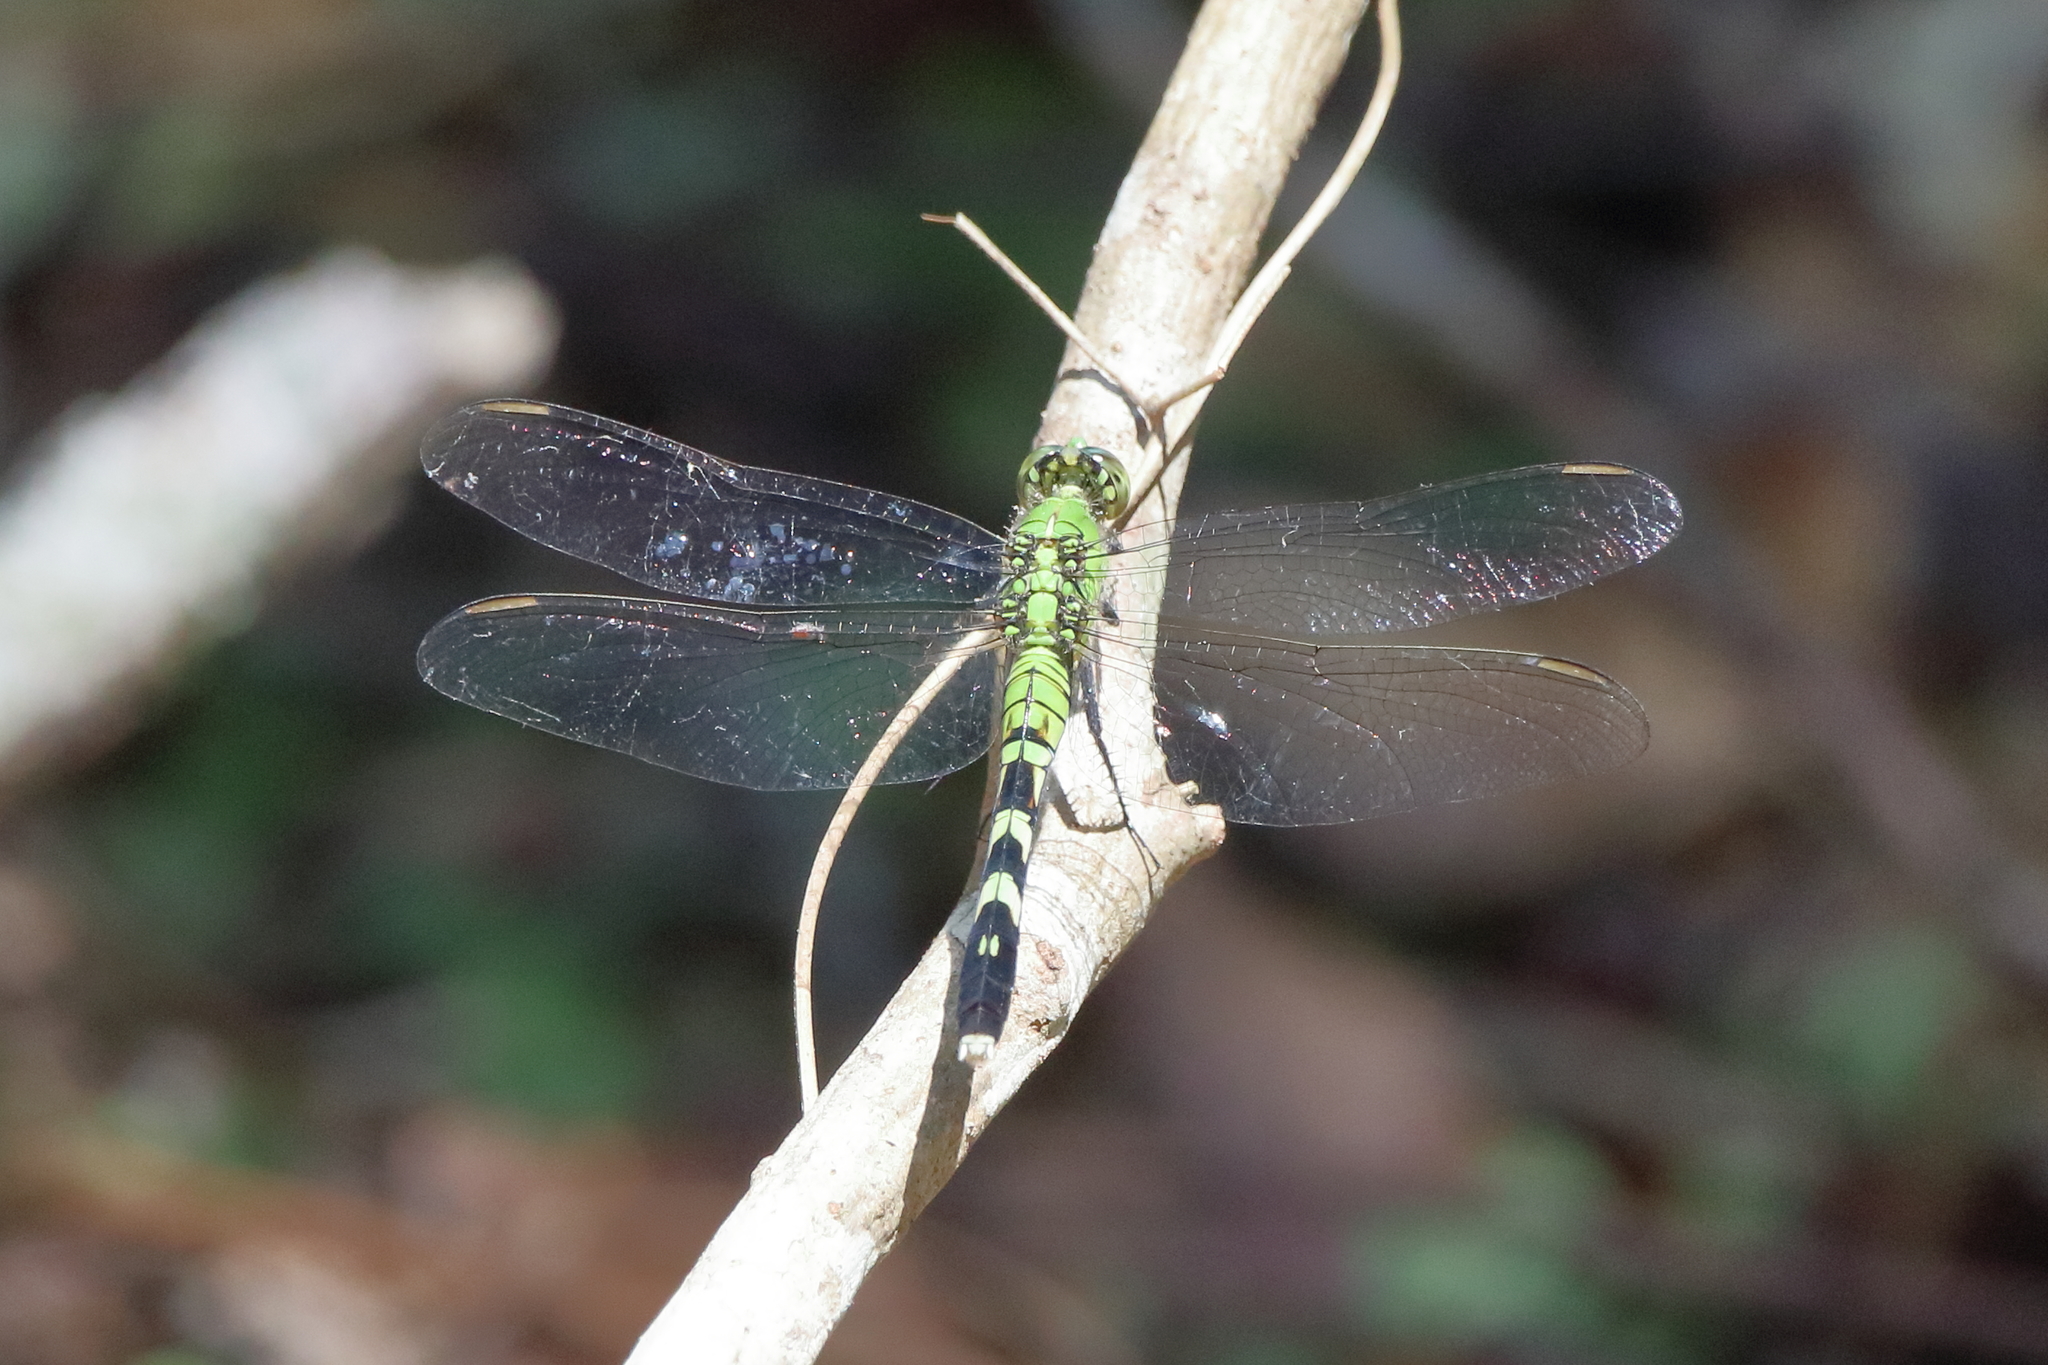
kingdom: Animalia
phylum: Arthropoda
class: Insecta
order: Odonata
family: Libellulidae
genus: Erythemis
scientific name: Erythemis simplicicollis
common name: Eastern pondhawk
